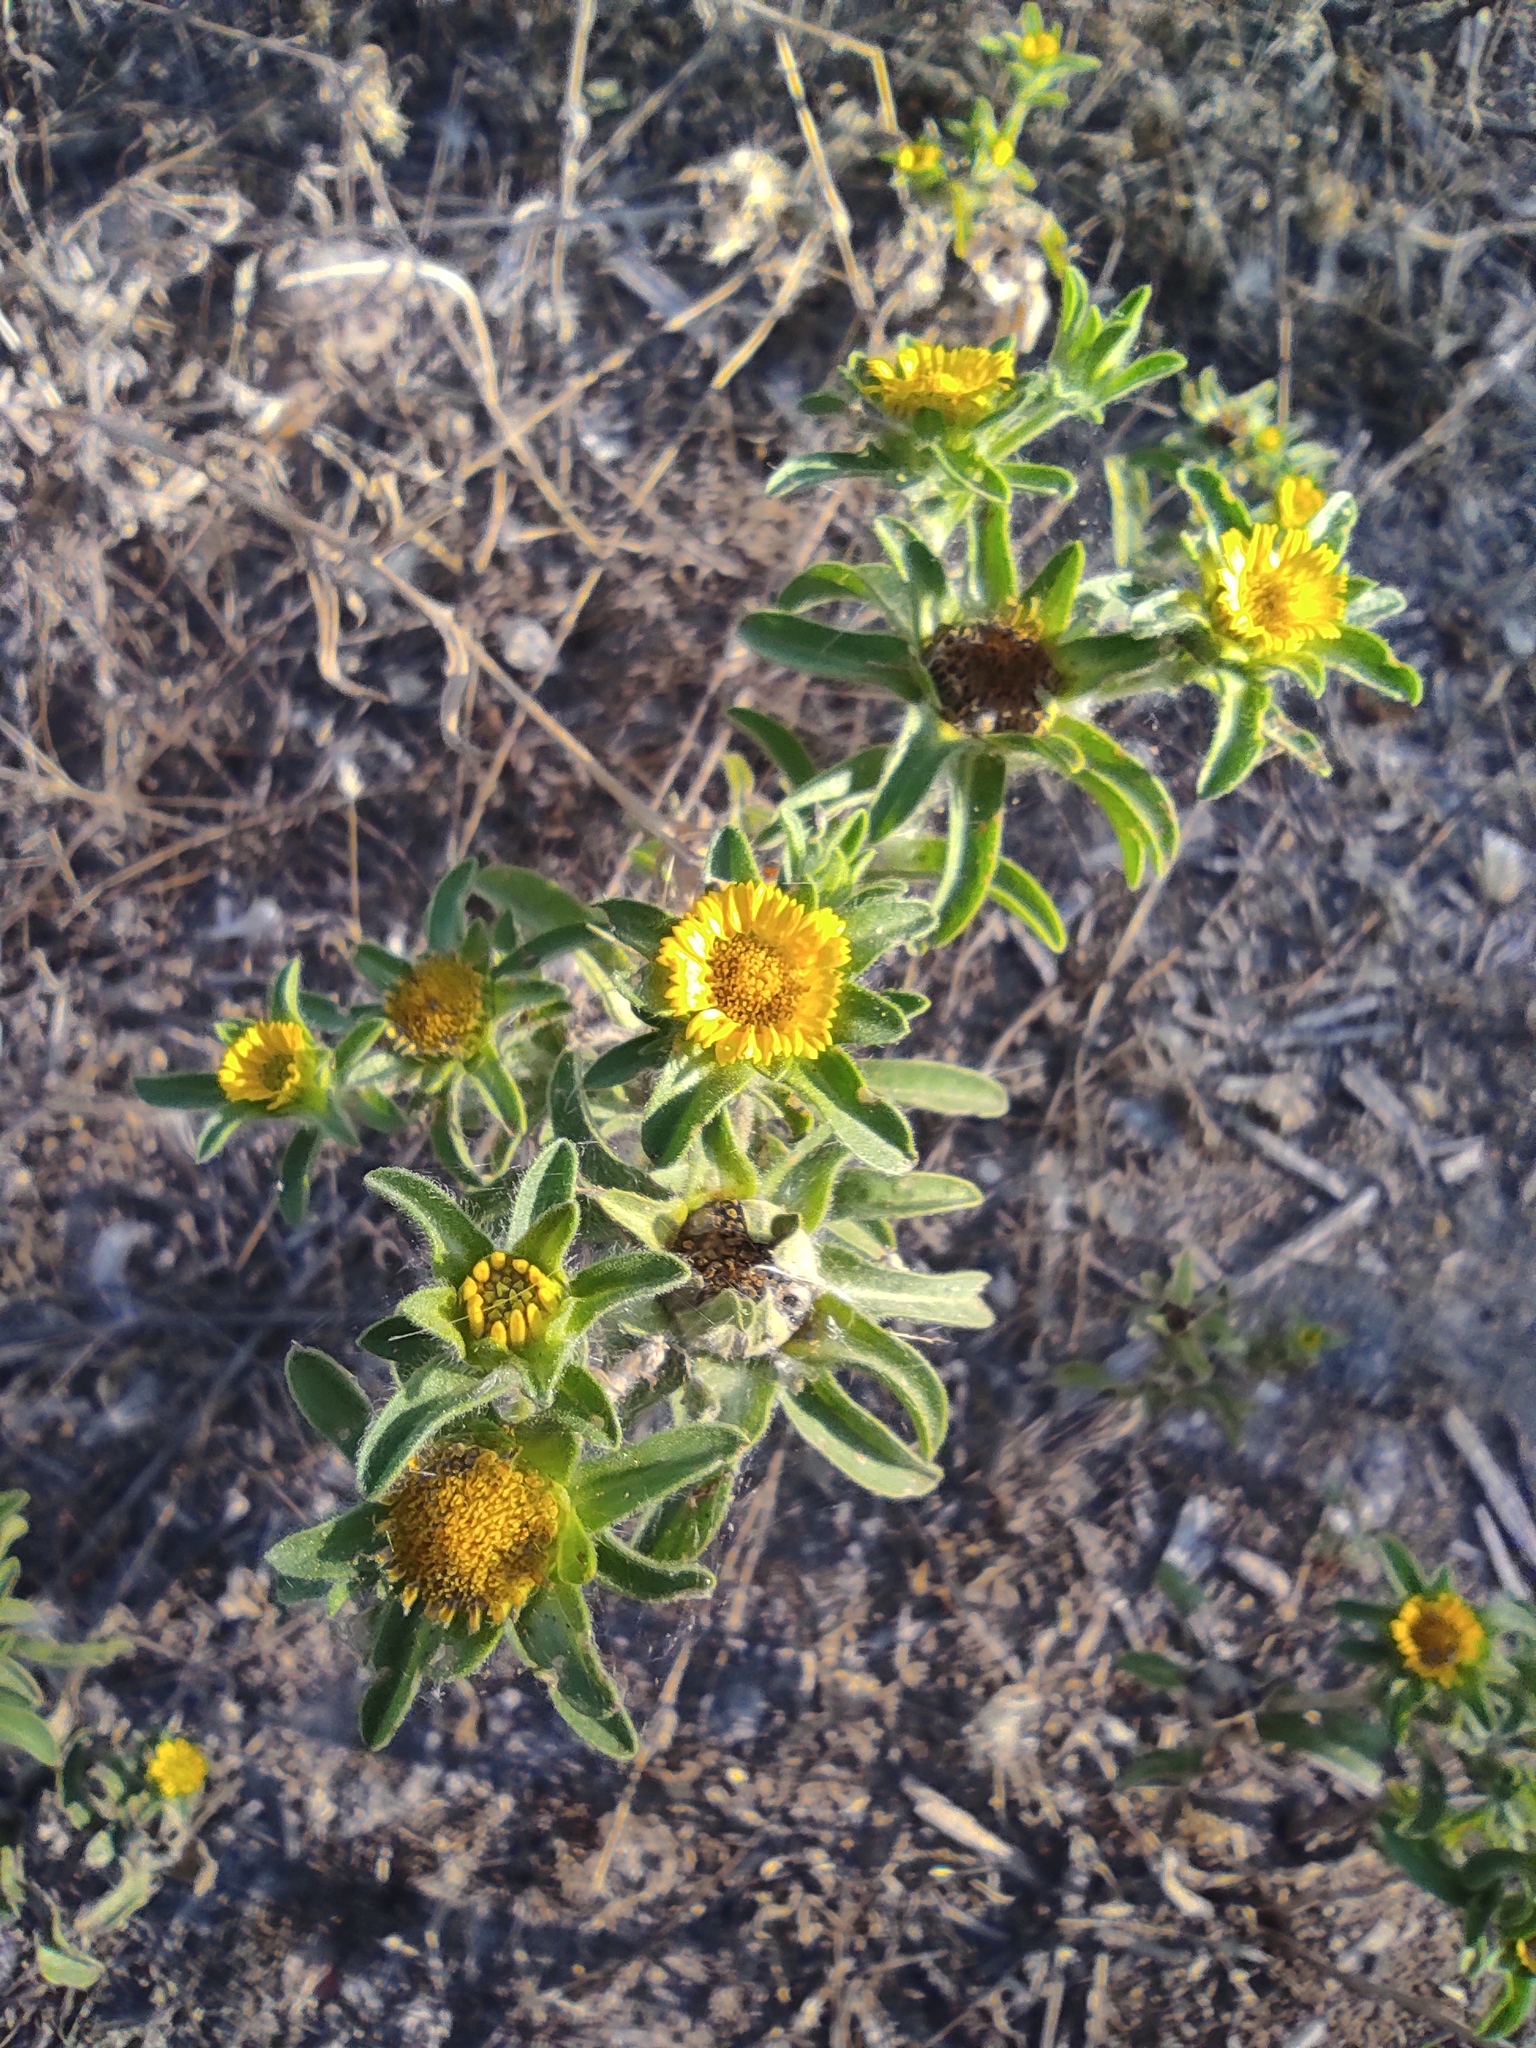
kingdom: Plantae
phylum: Tracheophyta
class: Magnoliopsida
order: Asterales
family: Asteraceae
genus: Pallenis
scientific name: Pallenis spinosa
